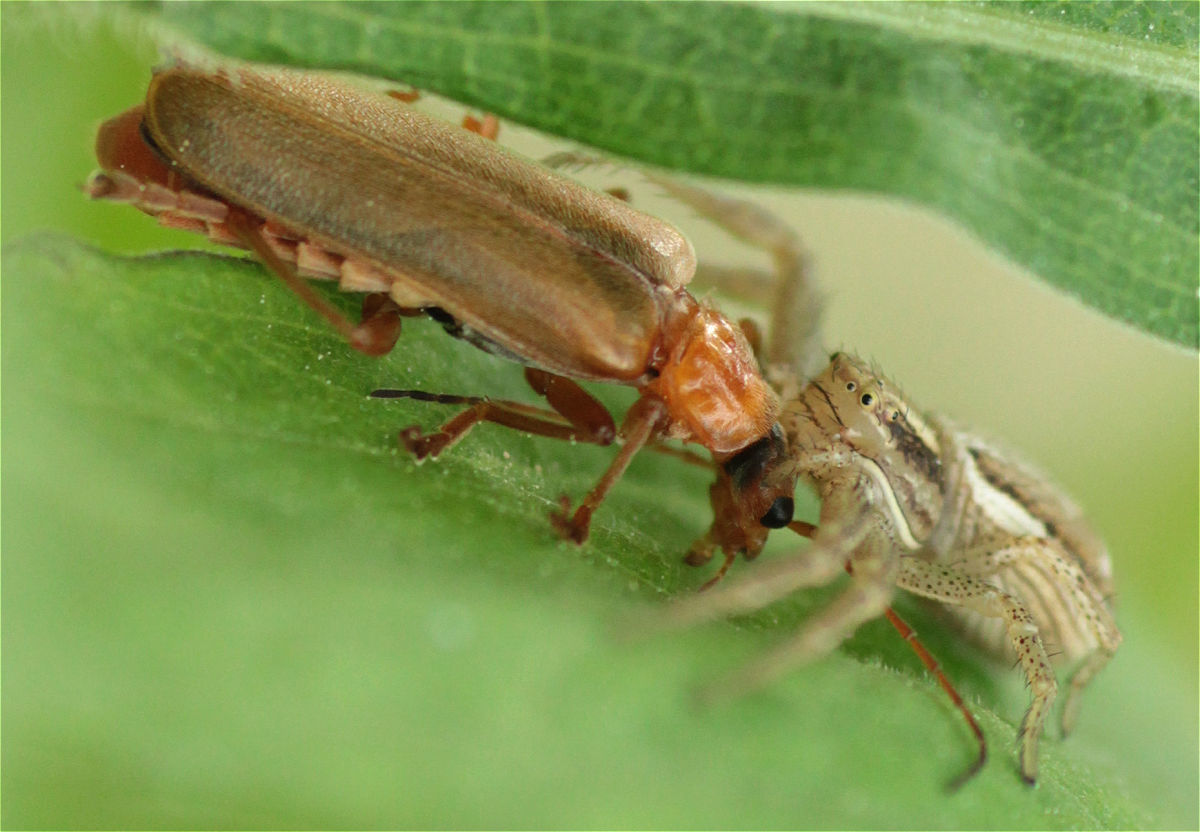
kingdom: Animalia
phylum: Arthropoda
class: Insecta
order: Coleoptera
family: Cantharidae
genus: Cantharis
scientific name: Cantharis rufa
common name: Red-spotted soldier beetle
